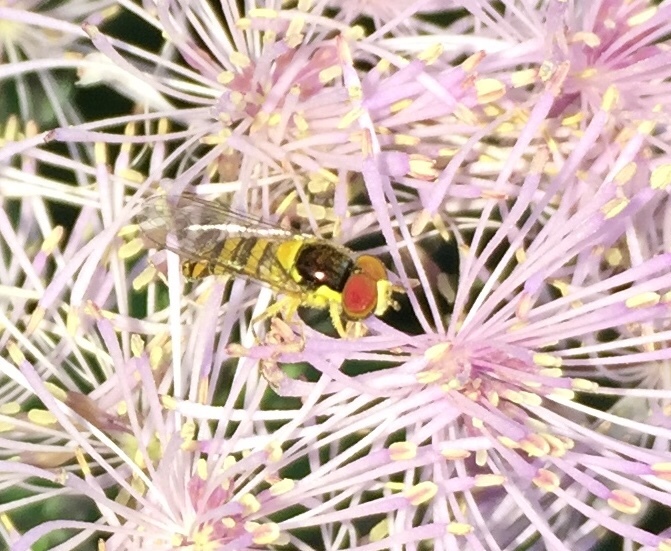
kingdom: Animalia
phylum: Arthropoda
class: Insecta
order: Diptera
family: Syrphidae
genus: Allograpta
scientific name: Allograpta obliqua
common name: Common oblique syrphid
